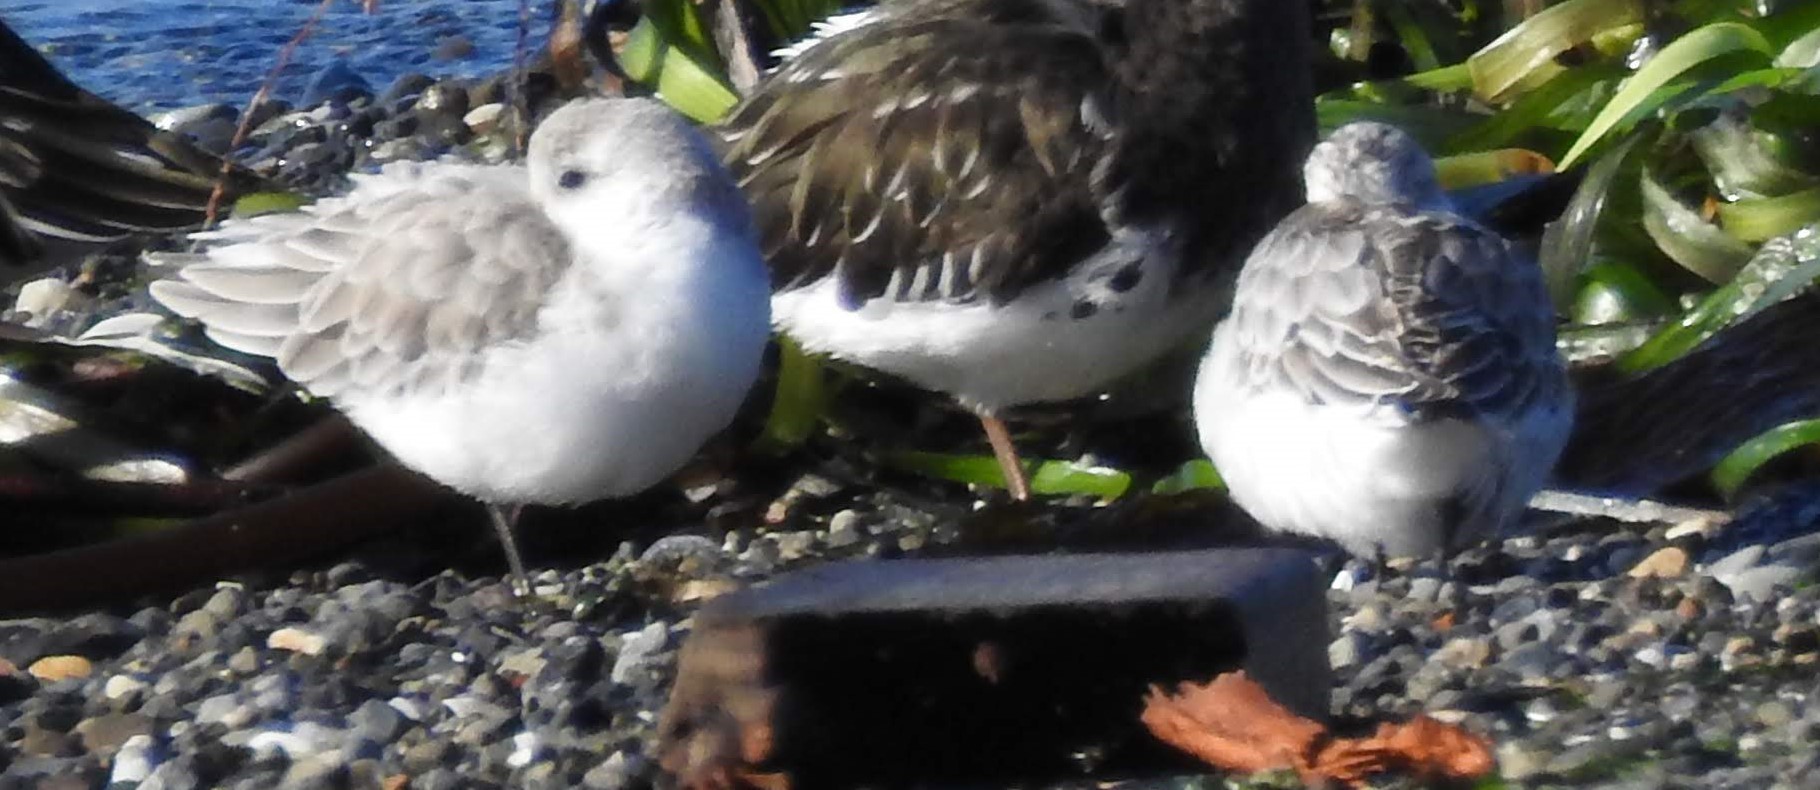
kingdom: Animalia
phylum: Chordata
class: Aves
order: Charadriiformes
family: Scolopacidae
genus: Calidris
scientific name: Calidris alba
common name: Sanderling
